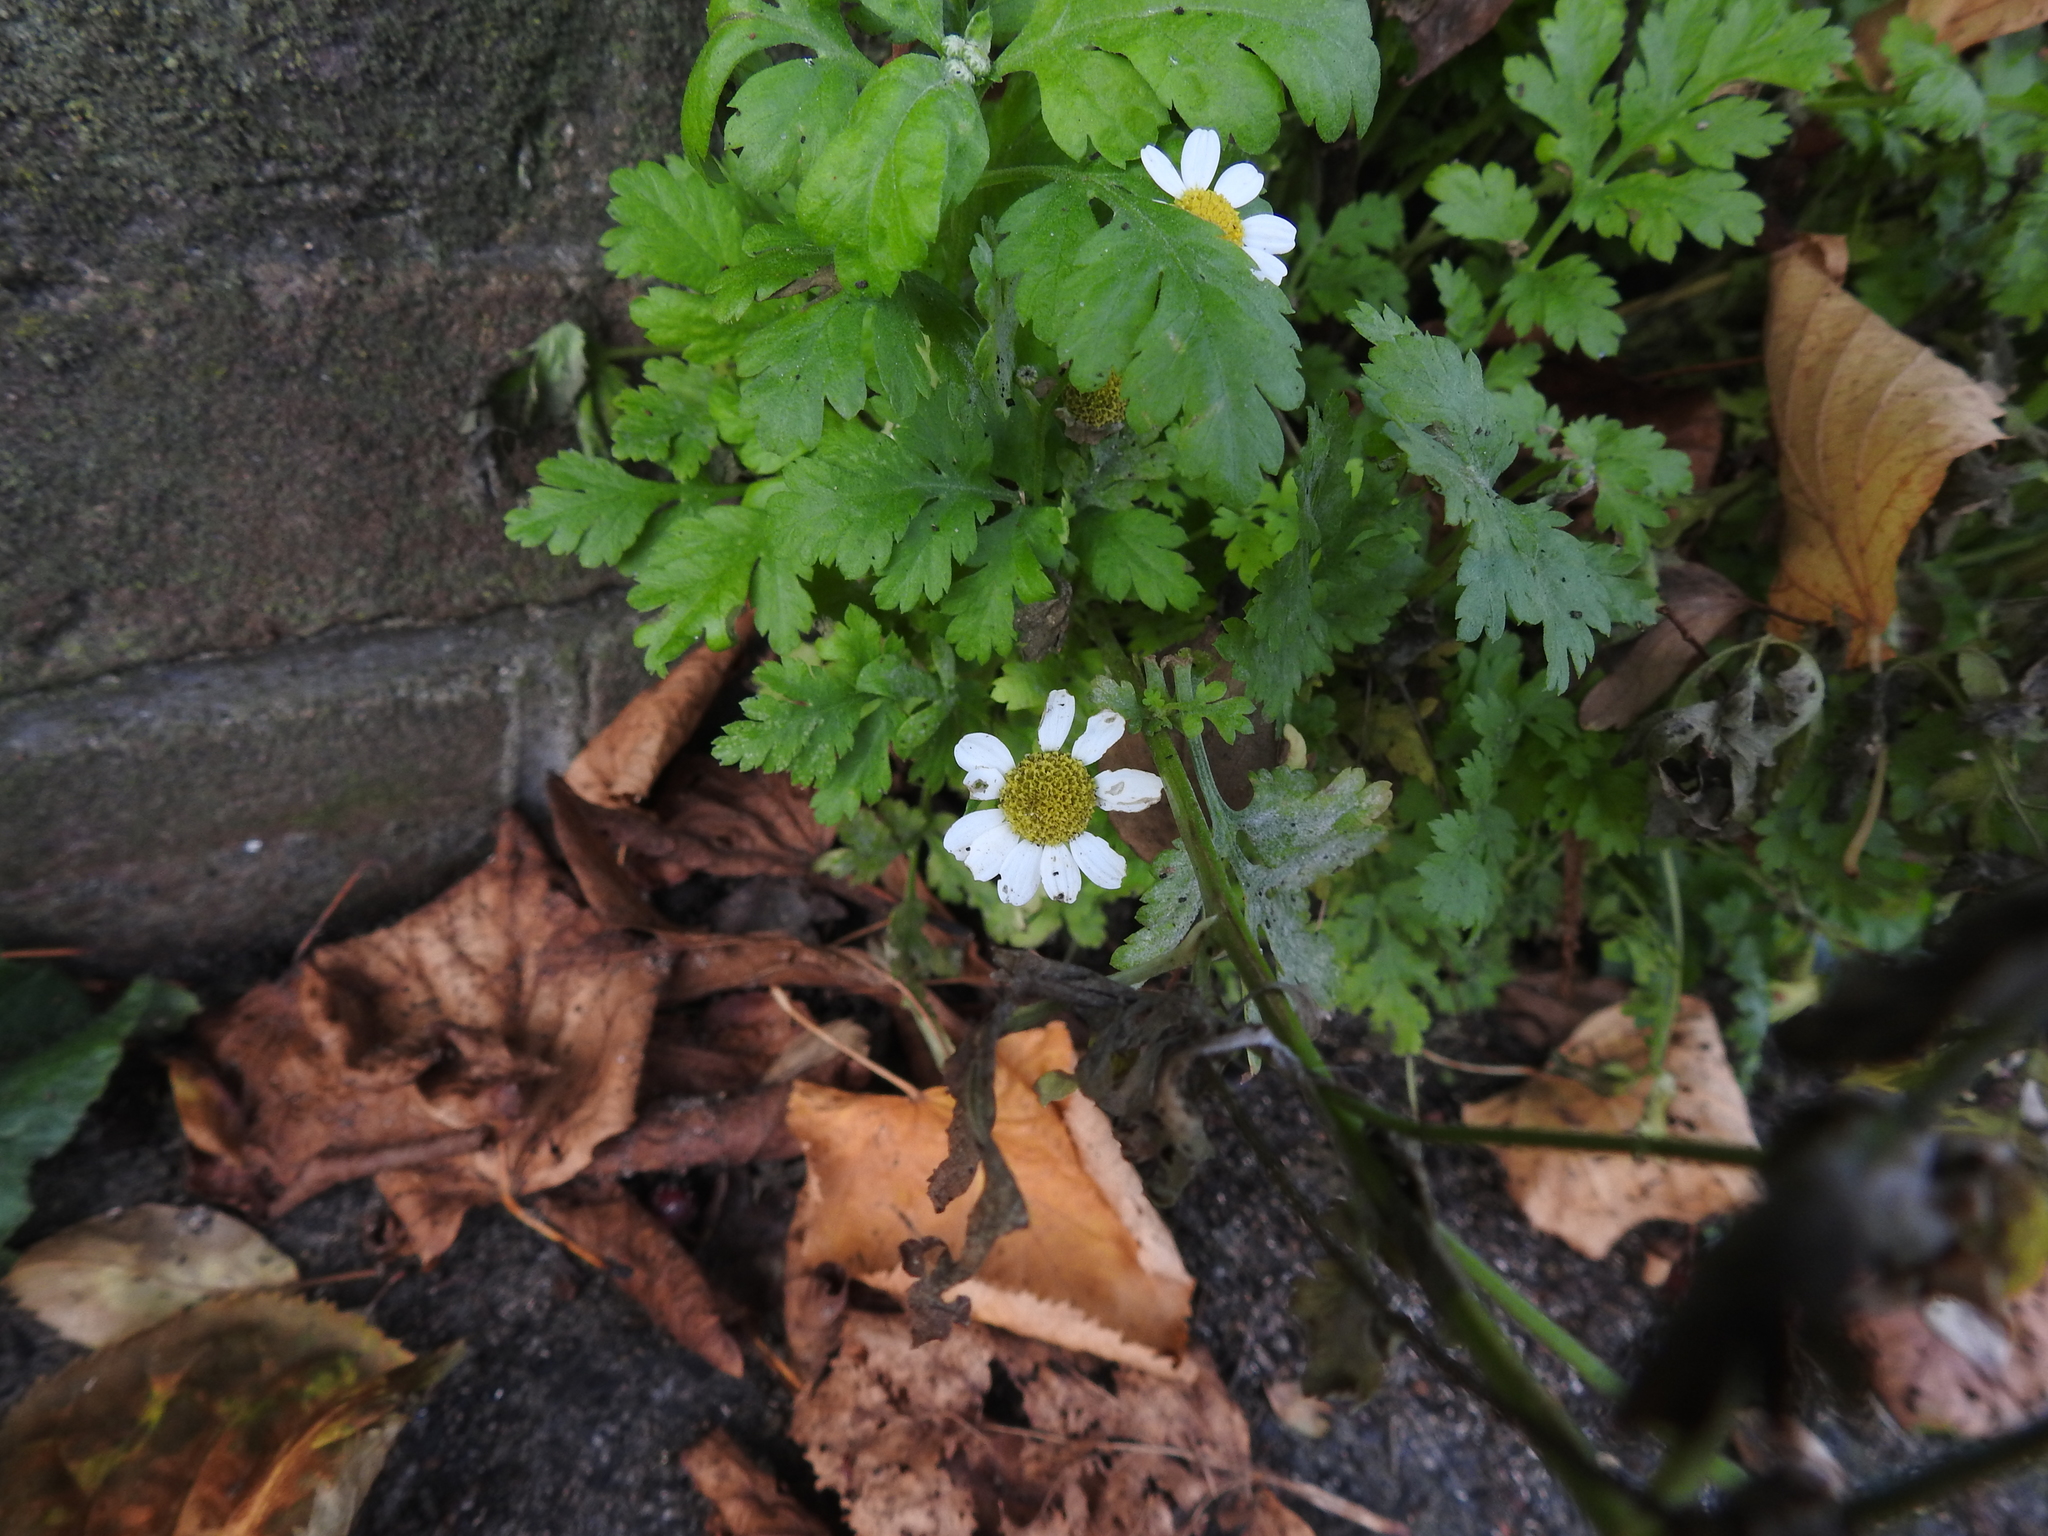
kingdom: Plantae
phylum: Tracheophyta
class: Magnoliopsida
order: Asterales
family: Asteraceae
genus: Tanacetum
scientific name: Tanacetum parthenium
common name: Feverfew
